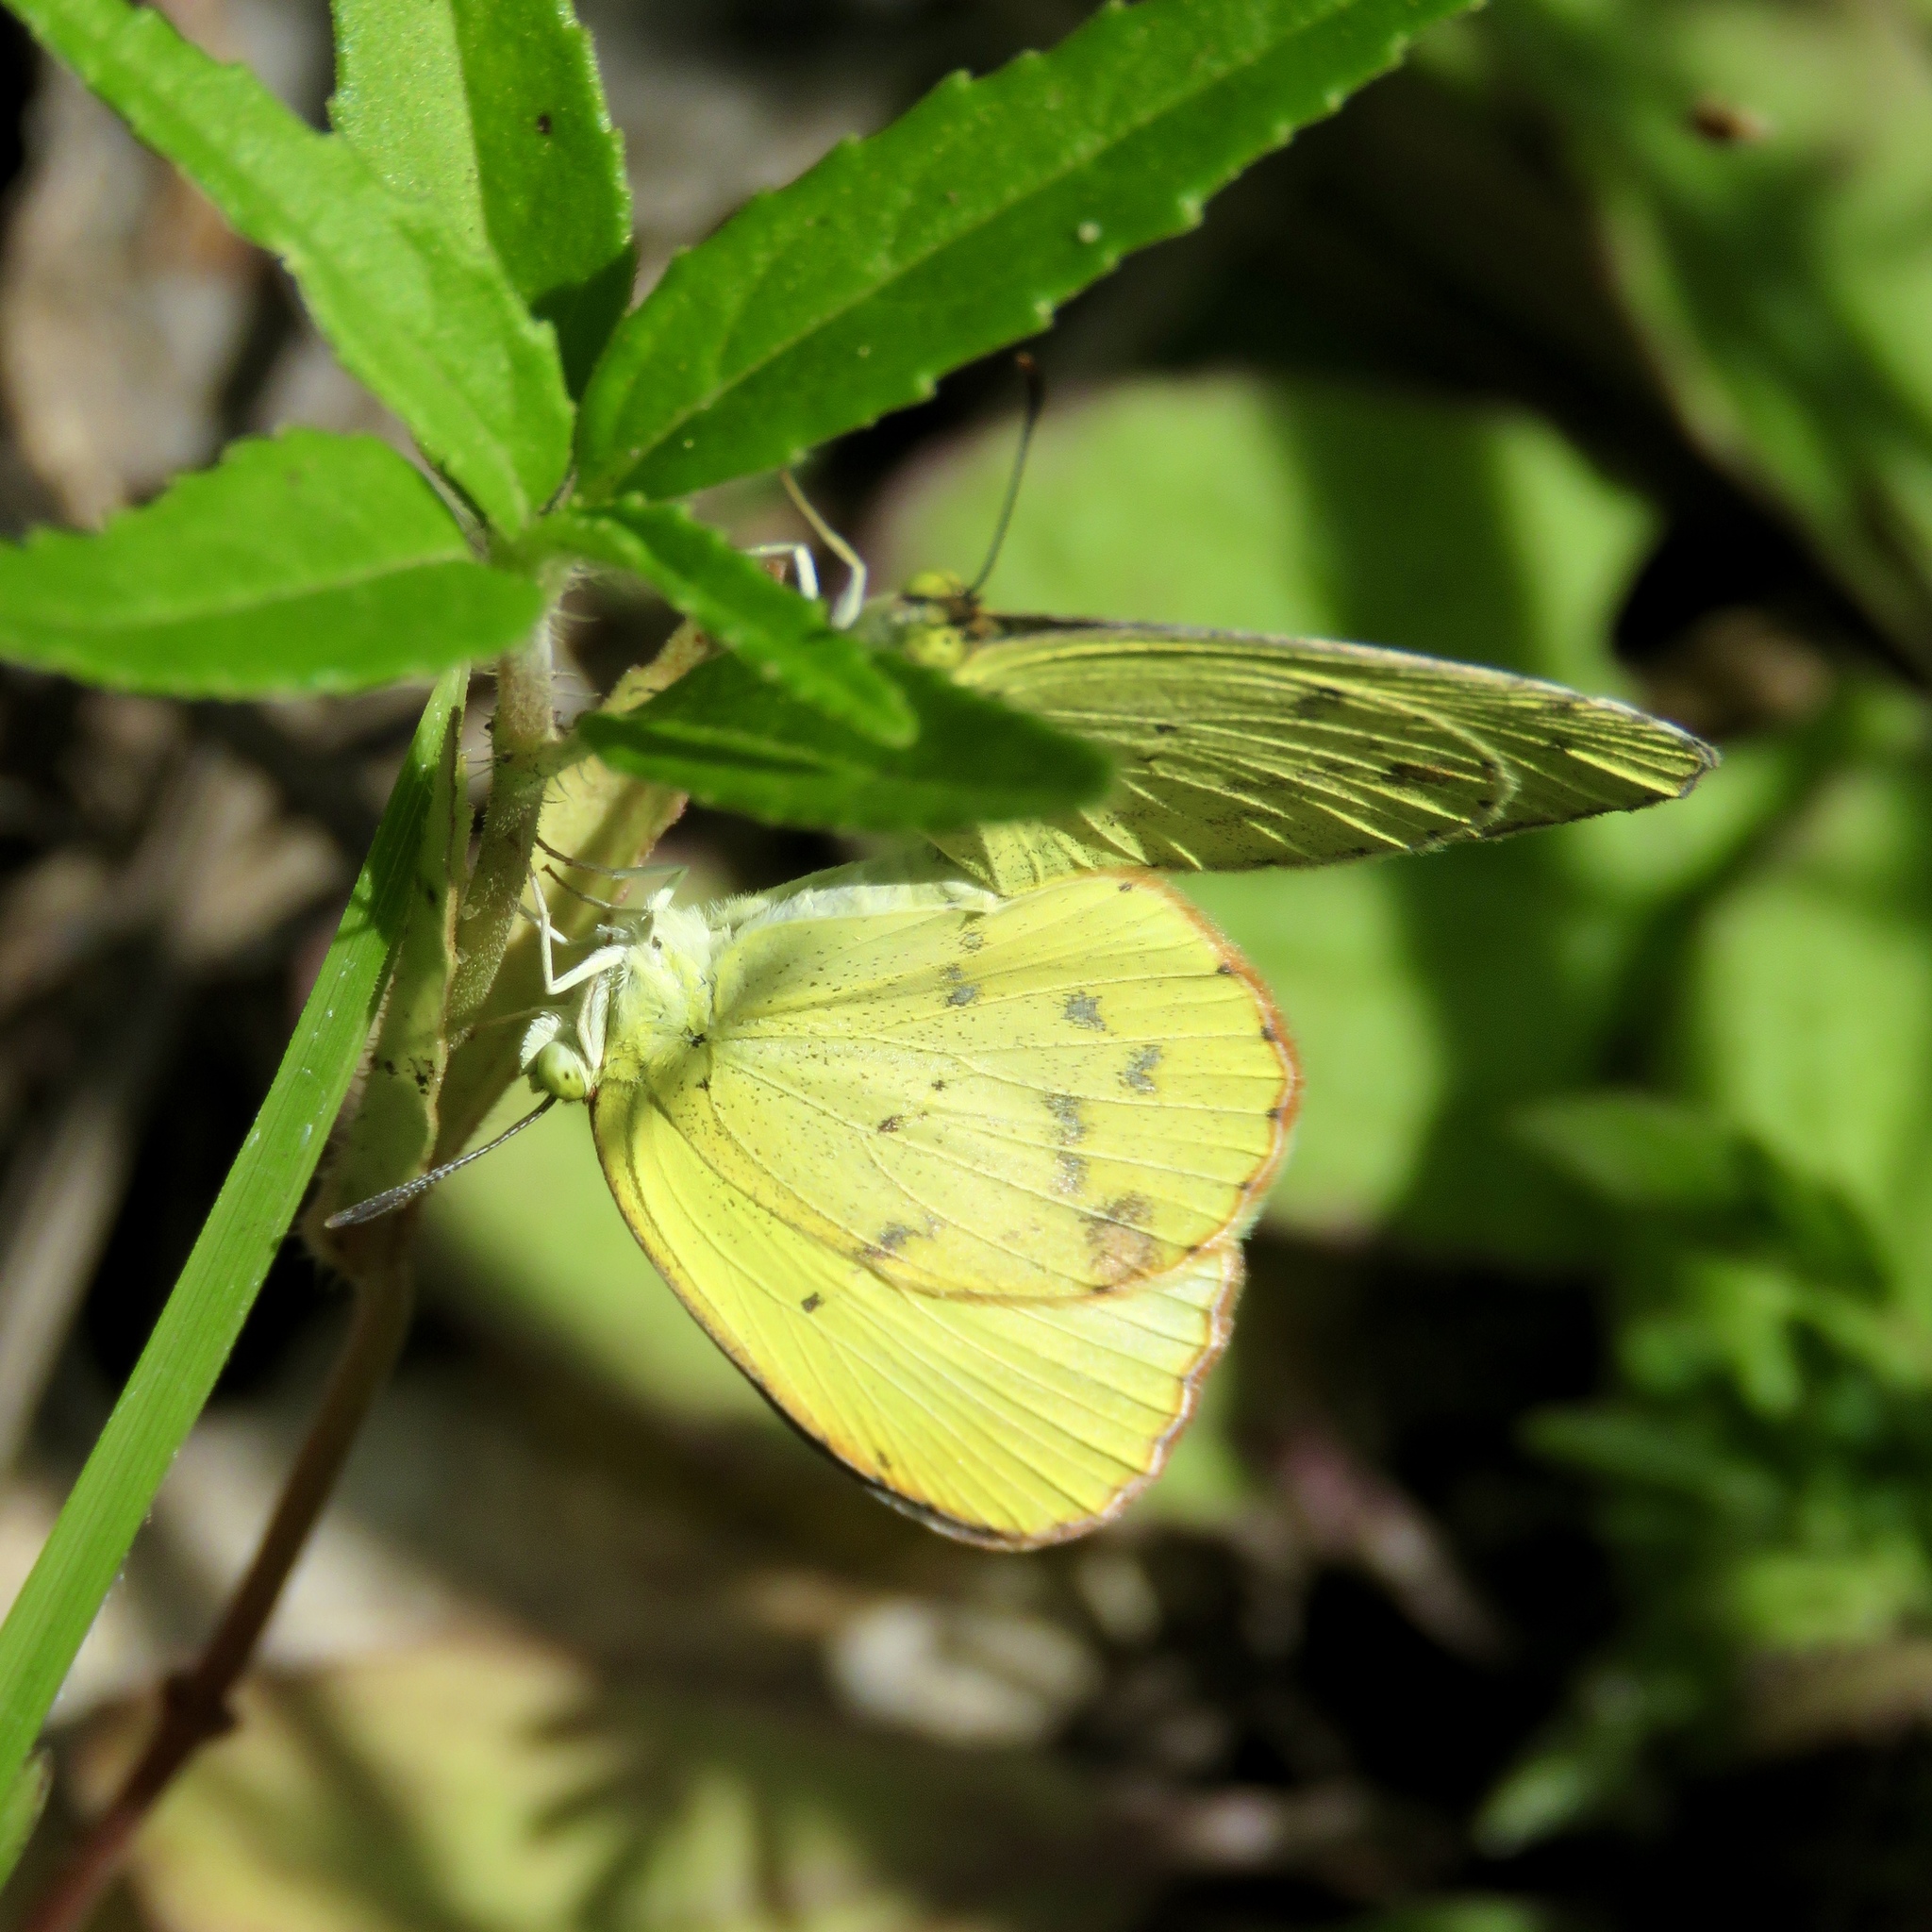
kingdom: Animalia
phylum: Arthropoda
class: Insecta
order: Lepidoptera
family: Pieridae
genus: Pyrisitia
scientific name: Pyrisitia lisa
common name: Little yellow
